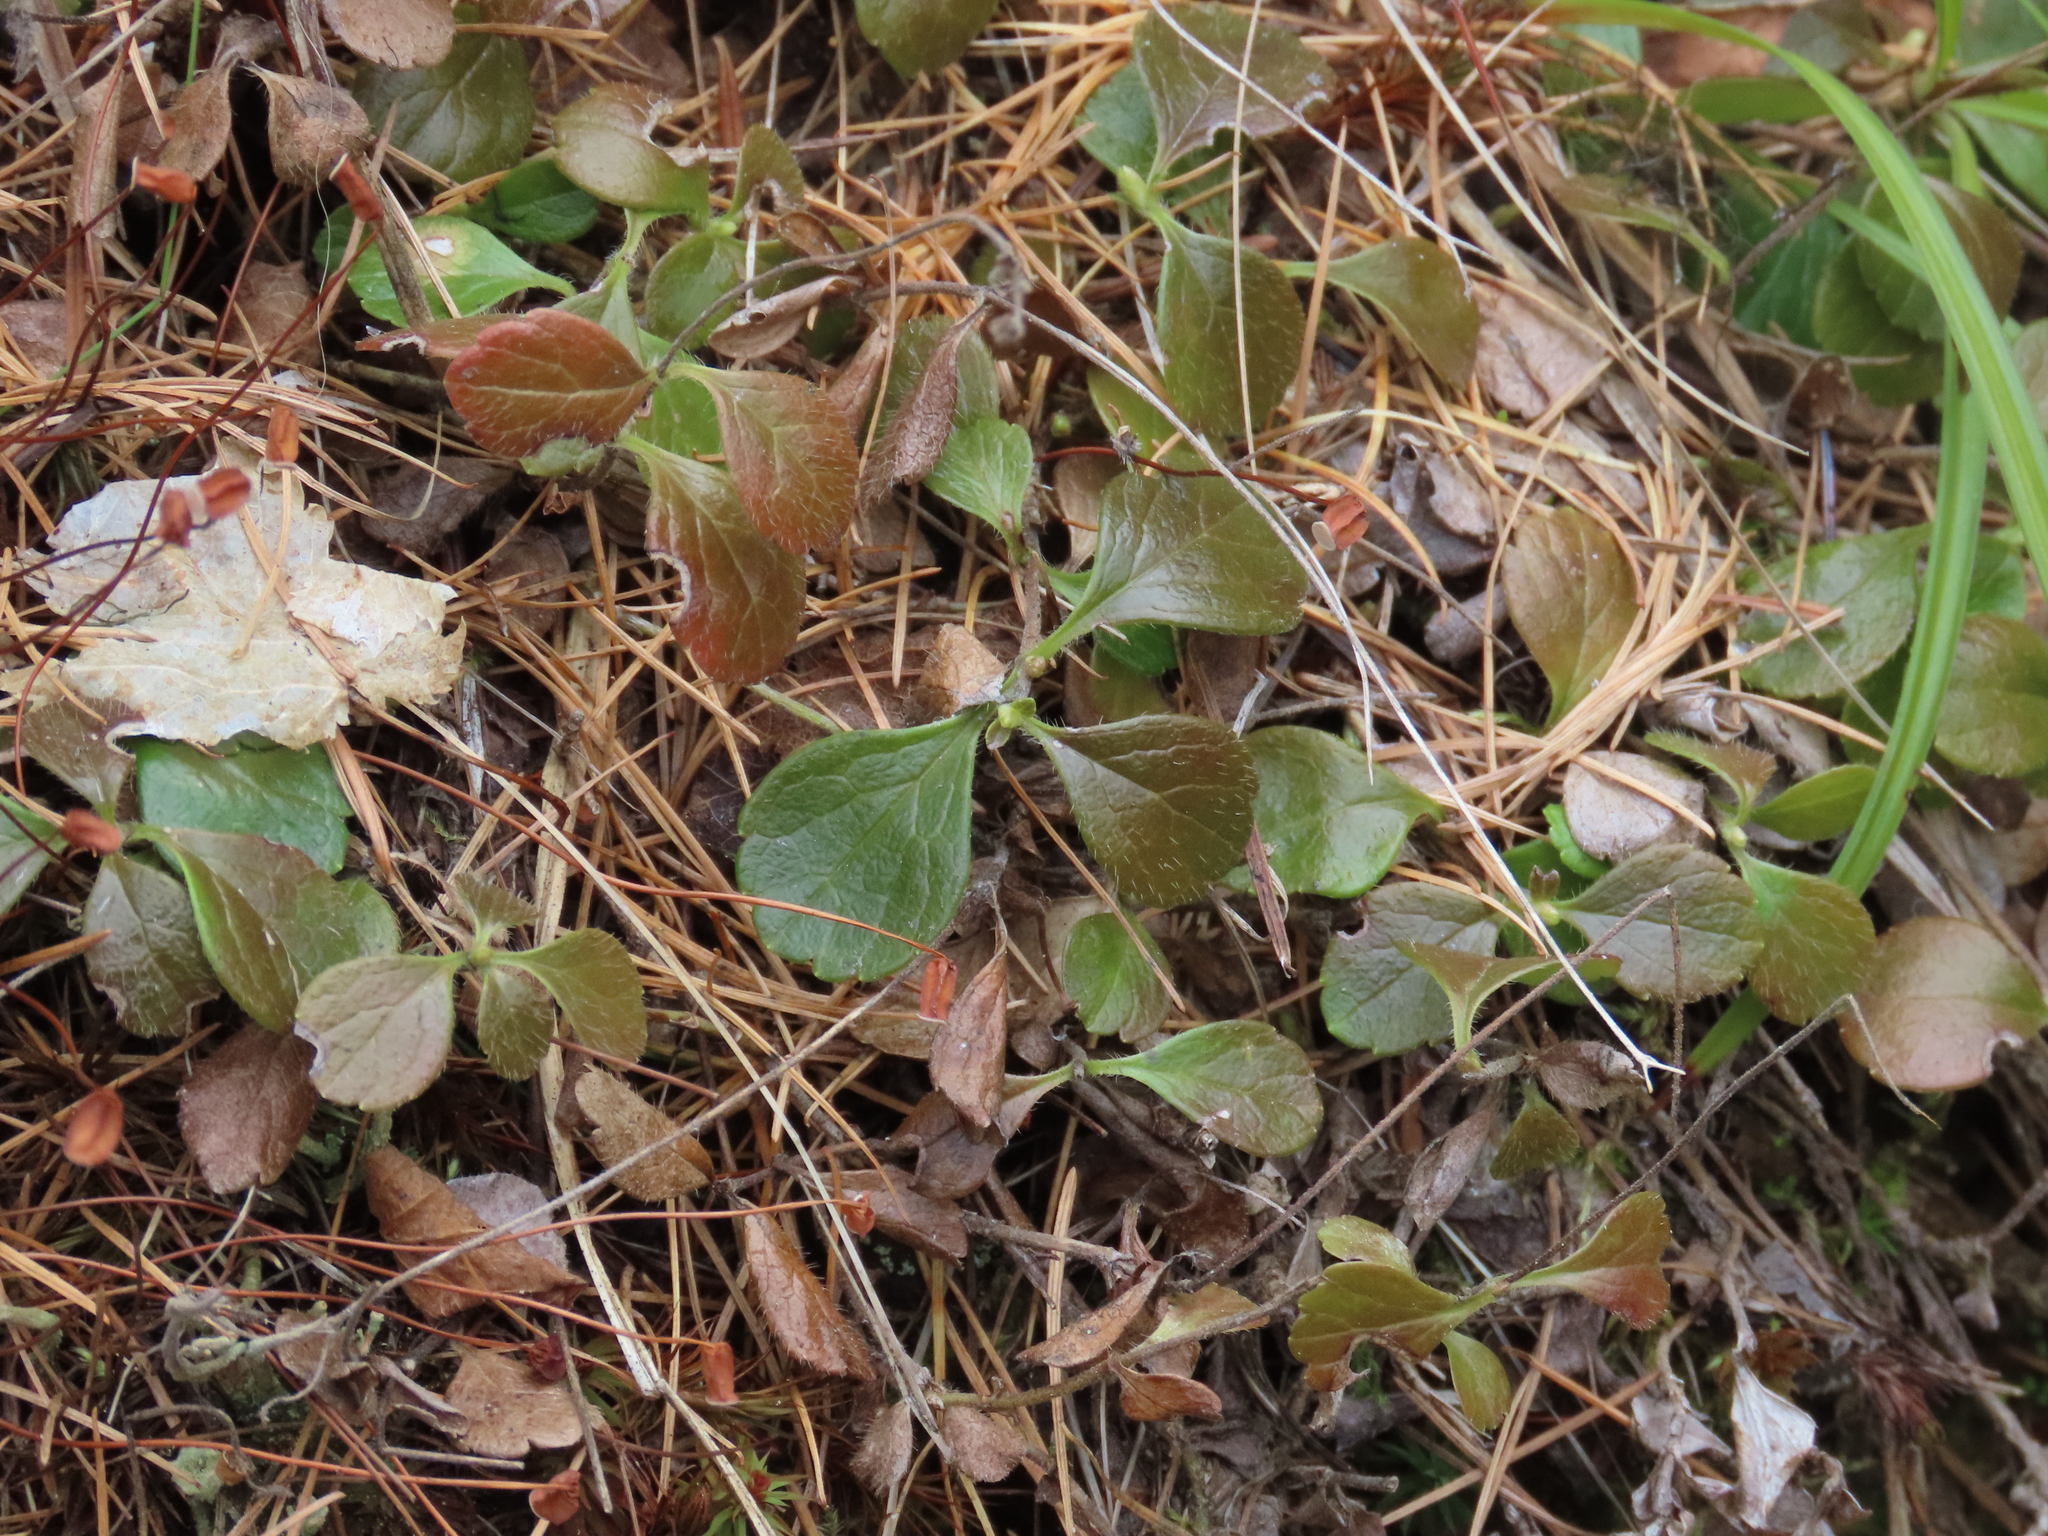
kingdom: Plantae
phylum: Tracheophyta
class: Magnoliopsida
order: Dipsacales
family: Caprifoliaceae
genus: Linnaea
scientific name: Linnaea borealis
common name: Twinflower
